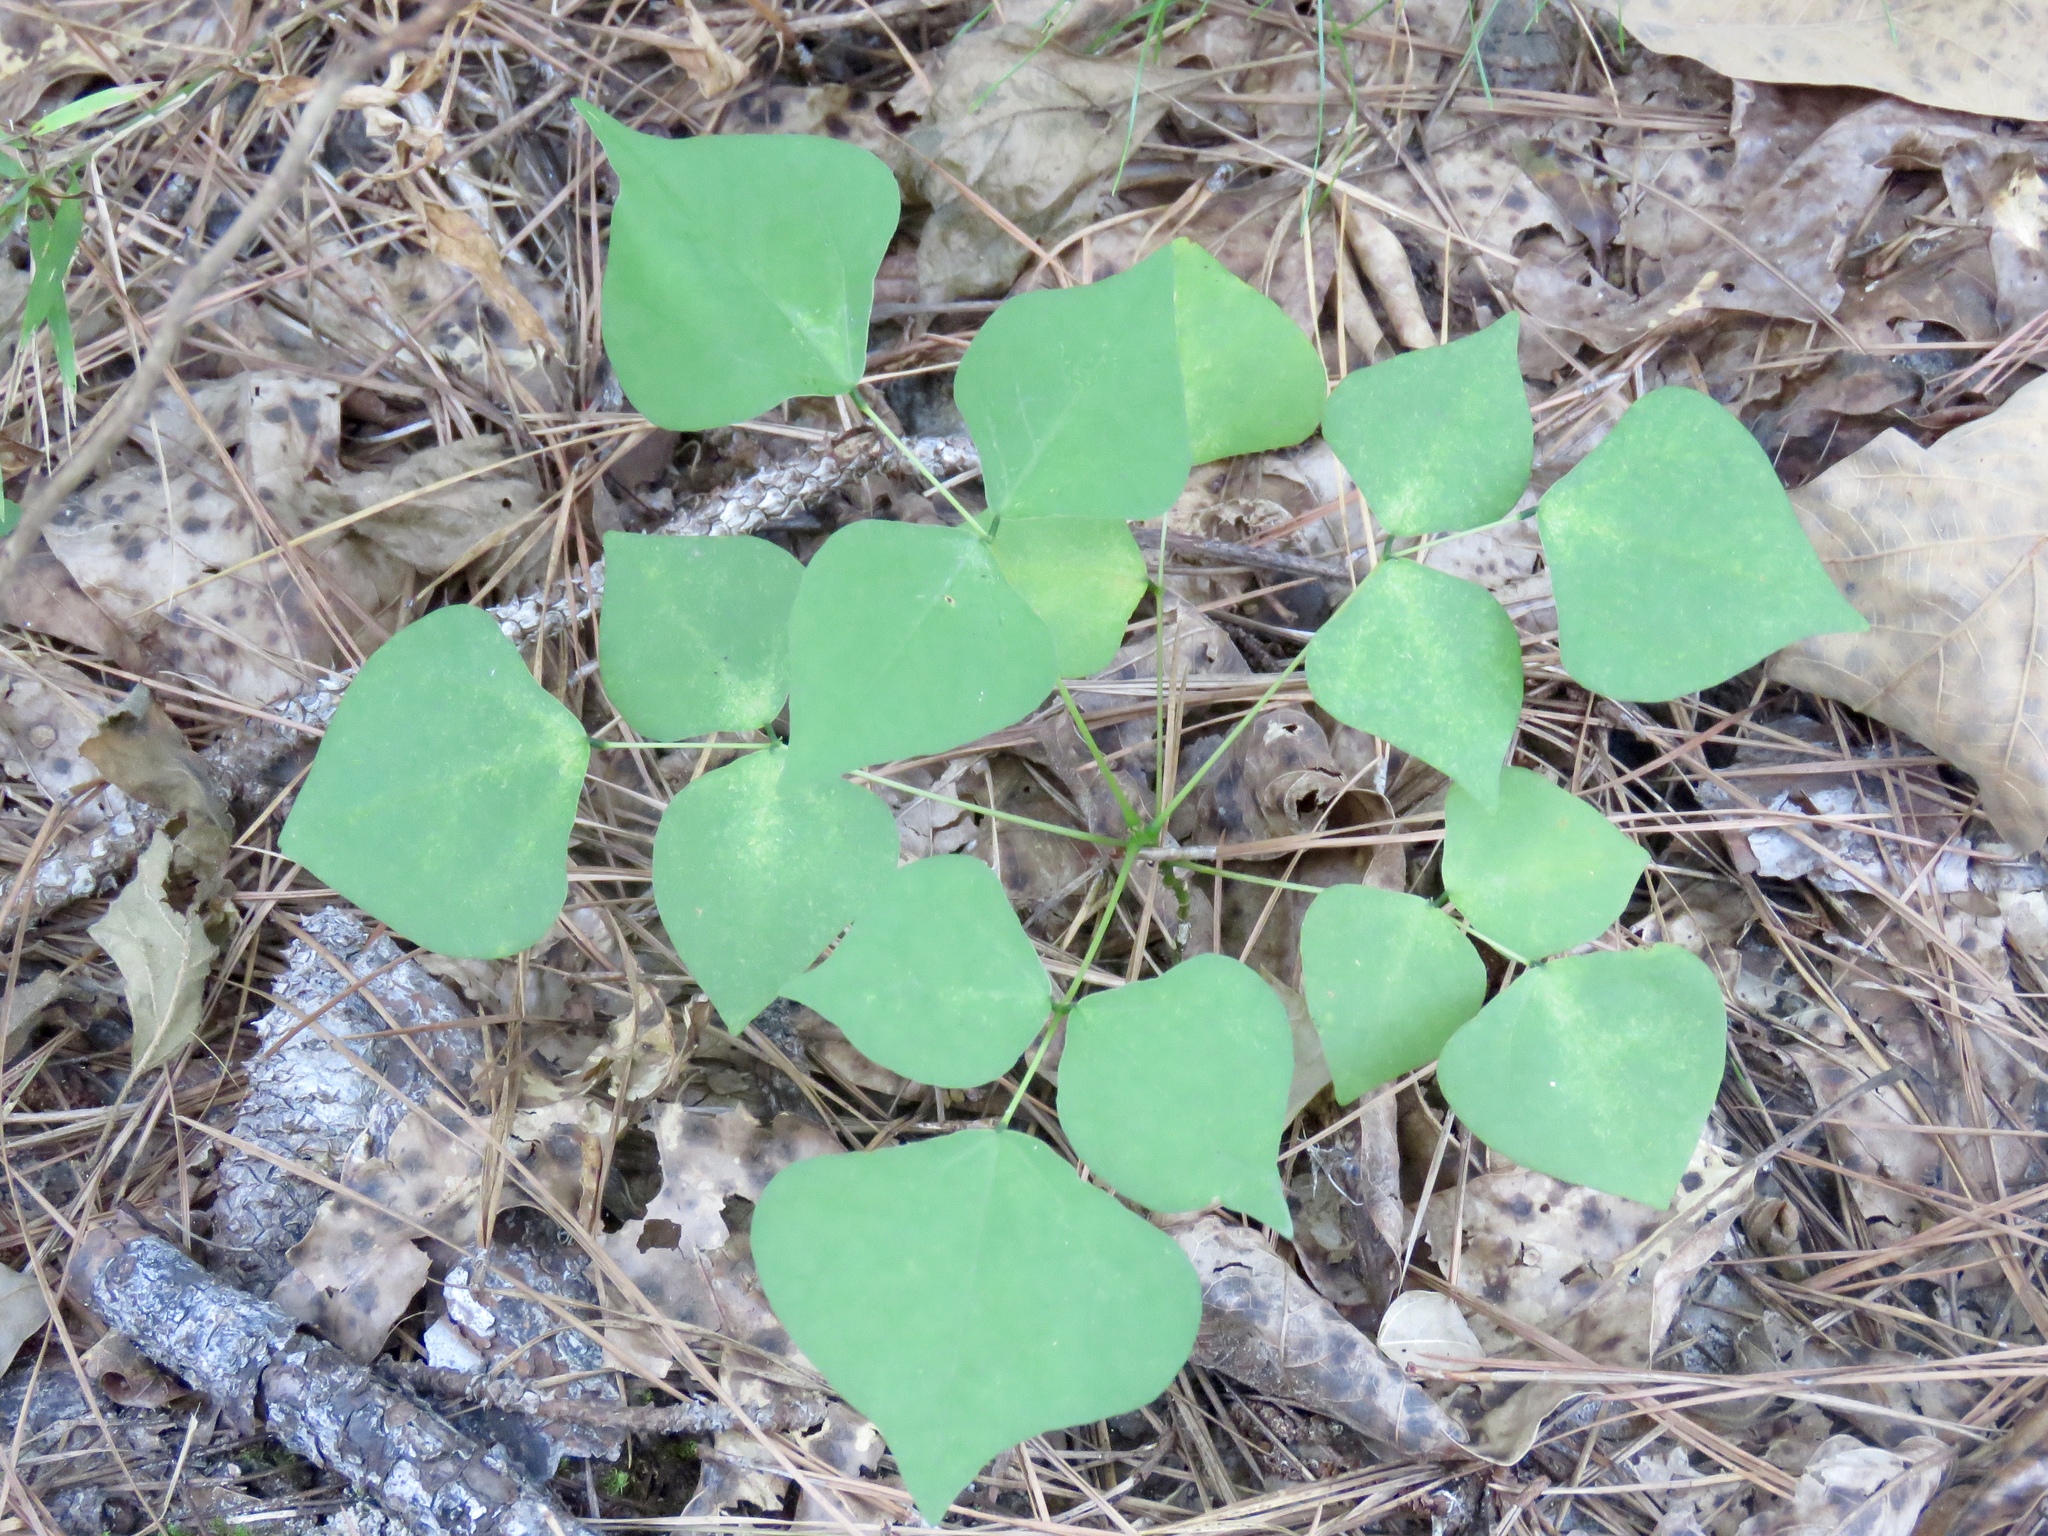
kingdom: Plantae
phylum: Tracheophyta
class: Magnoliopsida
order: Fabales
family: Fabaceae
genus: Erythrina
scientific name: Erythrina herbacea
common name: Coral-bean
